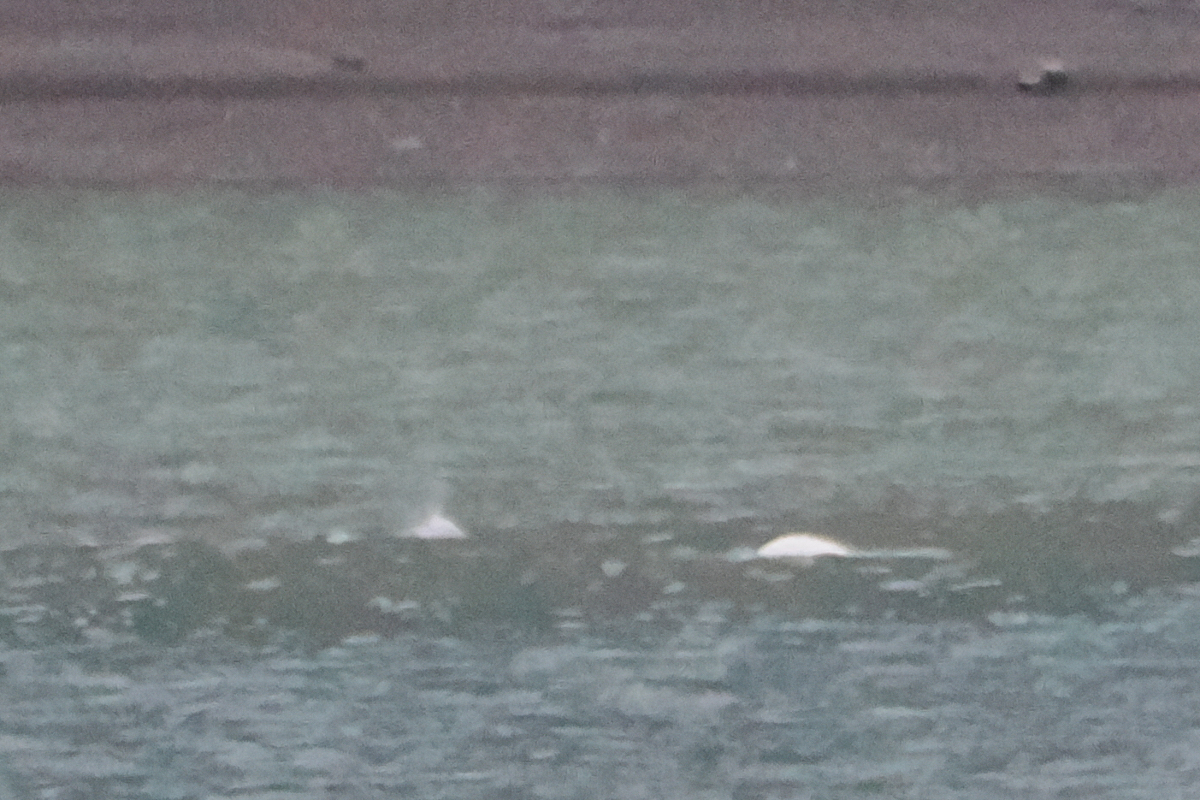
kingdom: Animalia
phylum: Chordata
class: Mammalia
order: Cetacea
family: Monodontidae
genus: Delphinapterus
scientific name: Delphinapterus leucas
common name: Beluga
